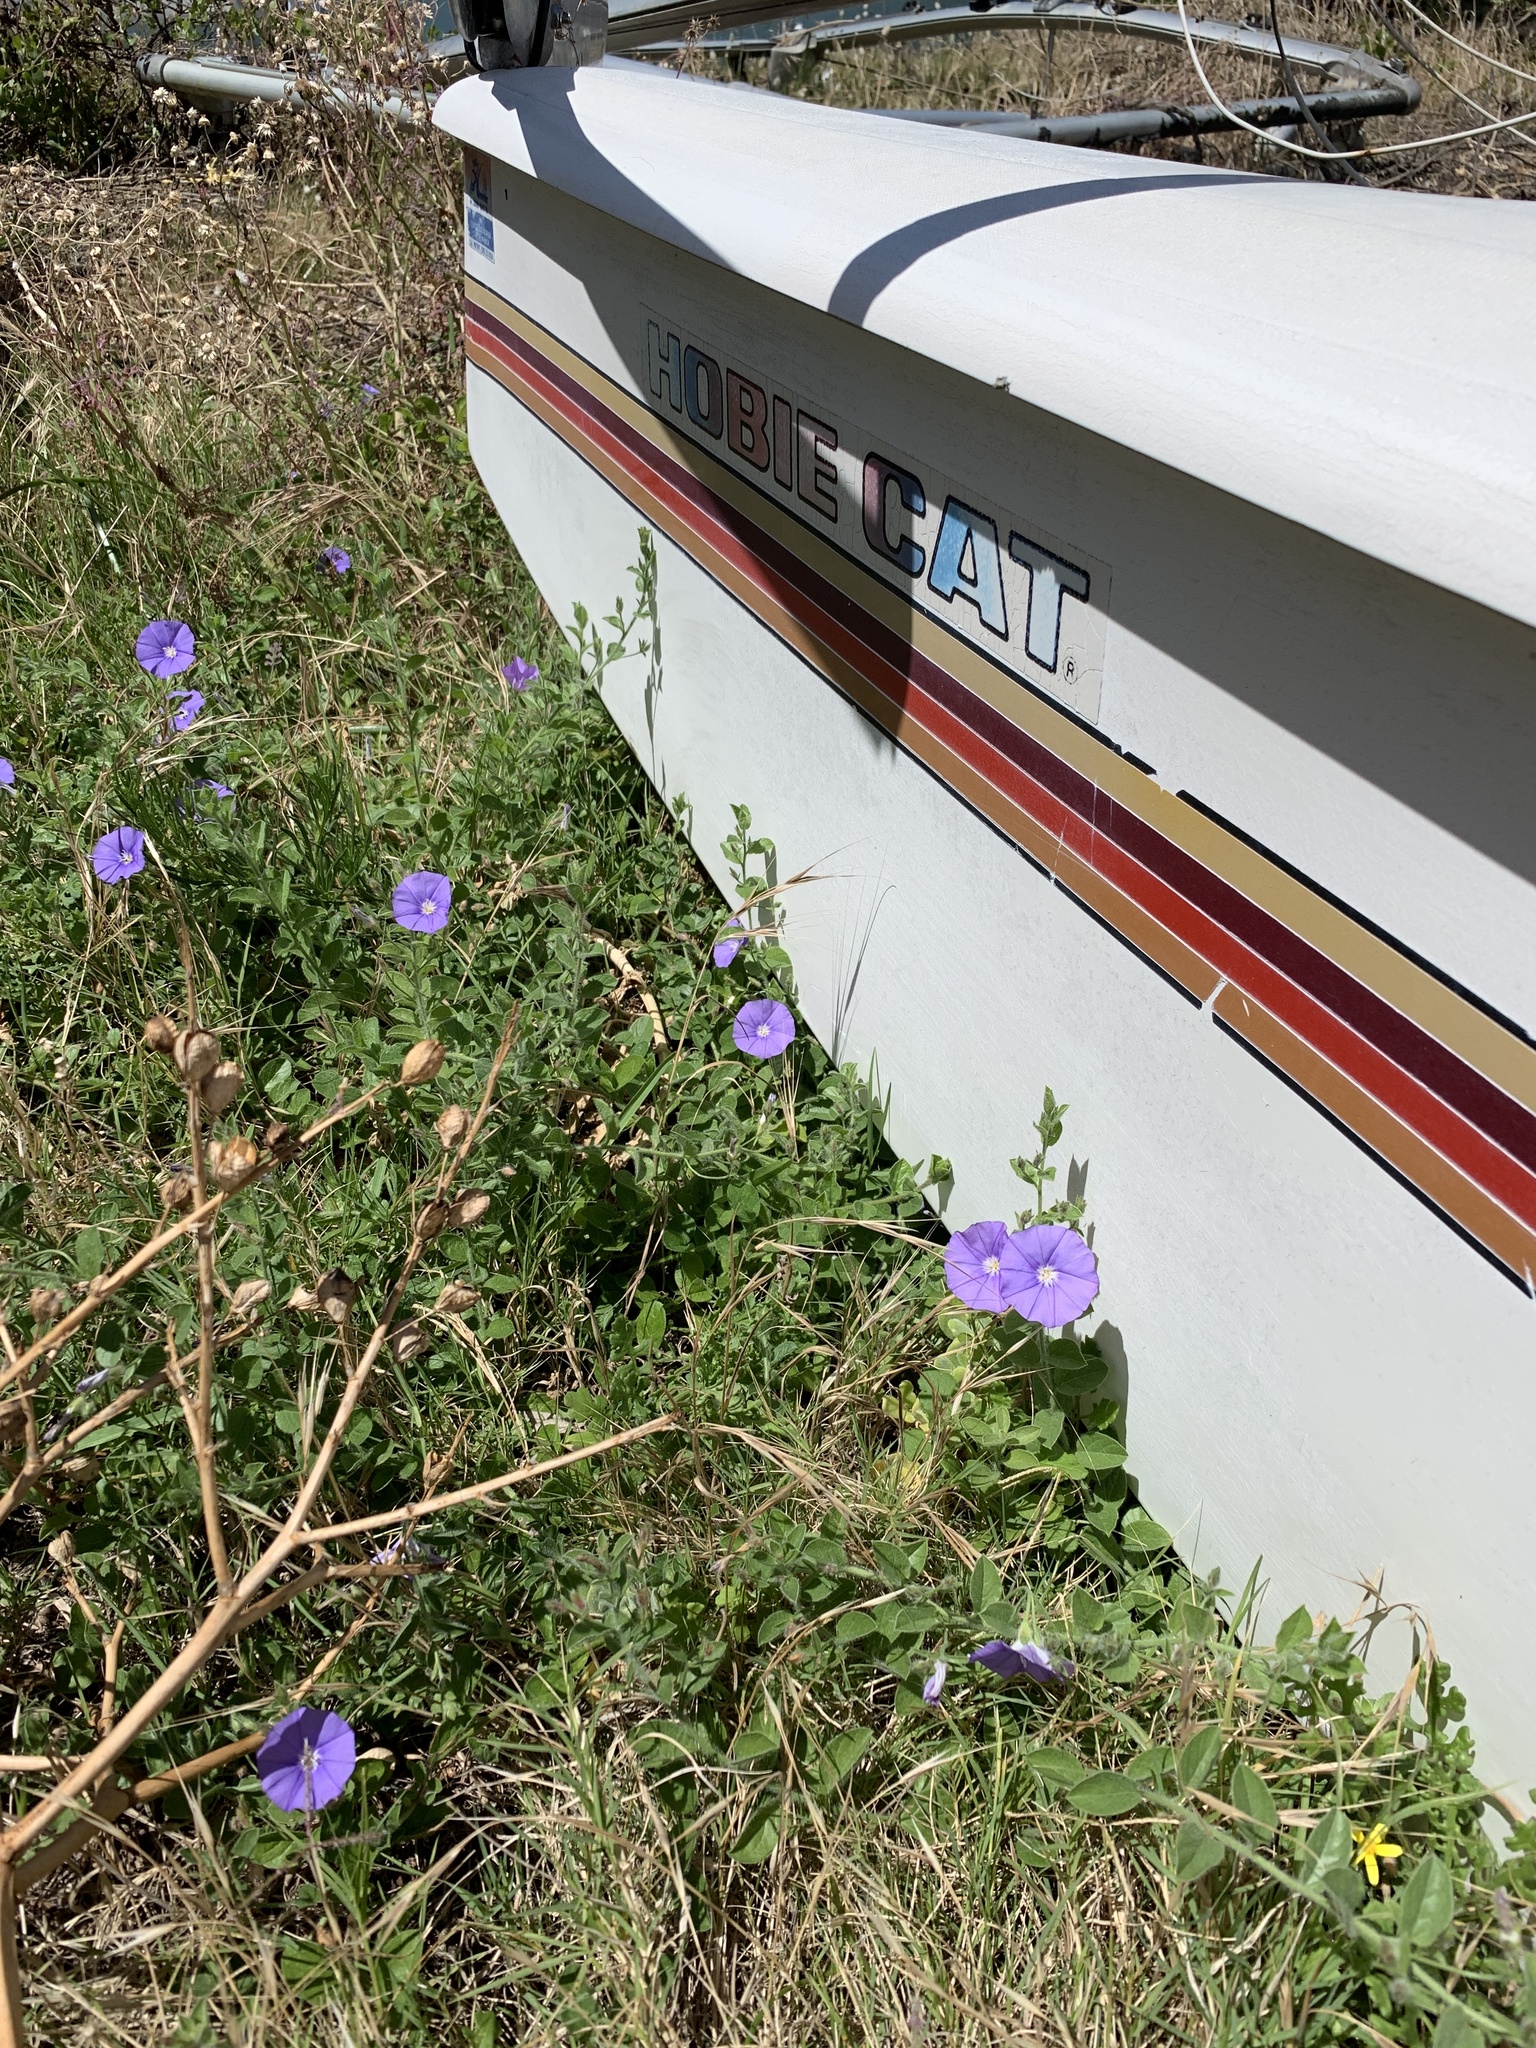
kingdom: Plantae
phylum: Tracheophyta
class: Magnoliopsida
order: Solanales
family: Convolvulaceae
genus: Convolvulus
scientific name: Convolvulus sabatius
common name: Ground blue-convolvulus
